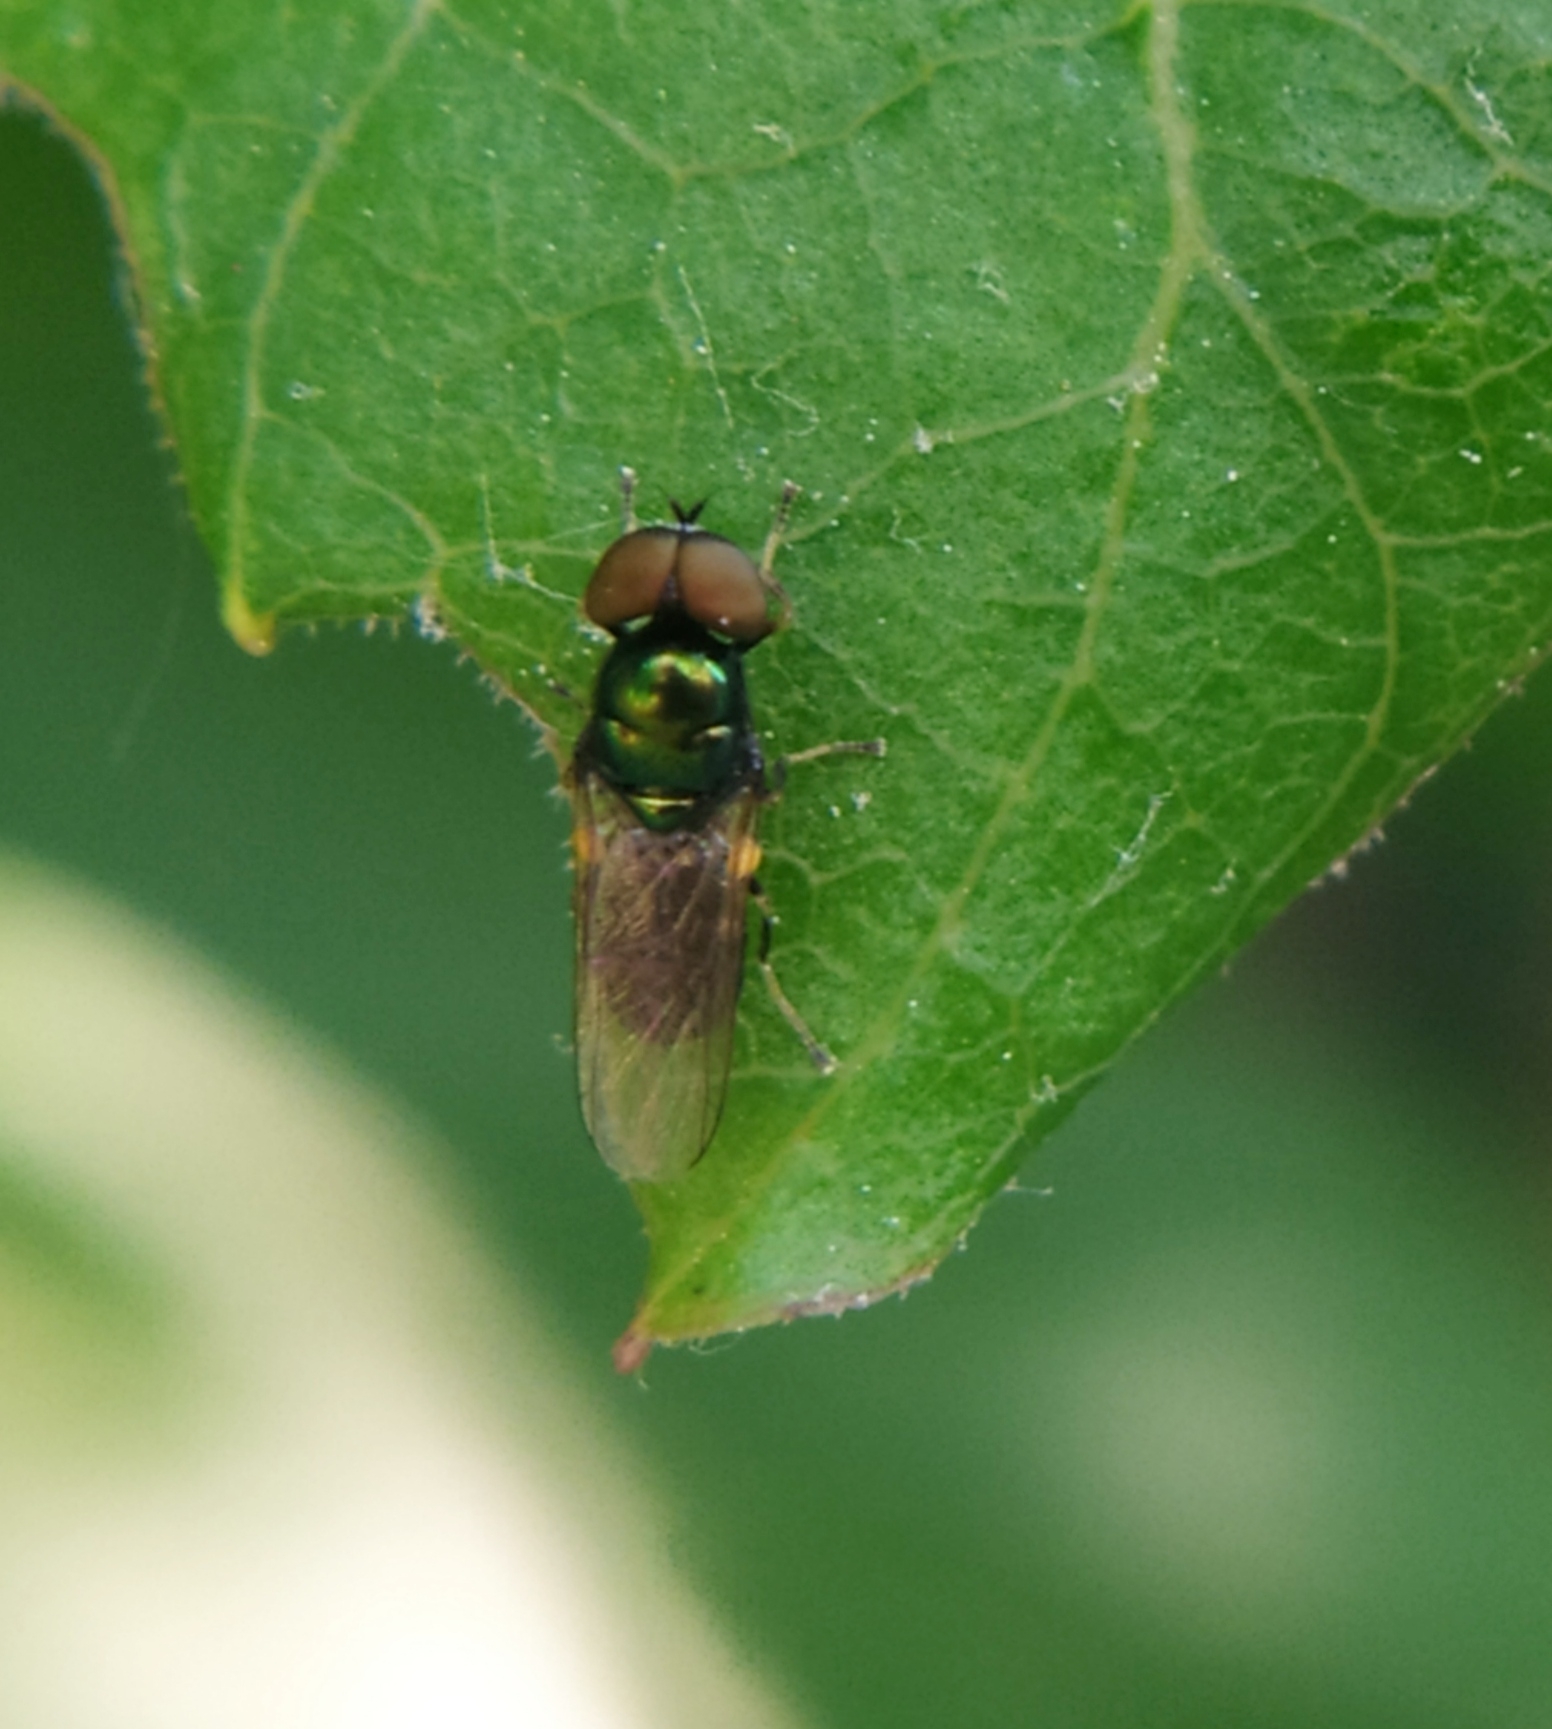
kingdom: Animalia
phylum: Arthropoda
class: Insecta
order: Diptera
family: Stratiomyidae
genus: Microchrysa
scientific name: Microchrysa polita
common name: Black-horned gem
